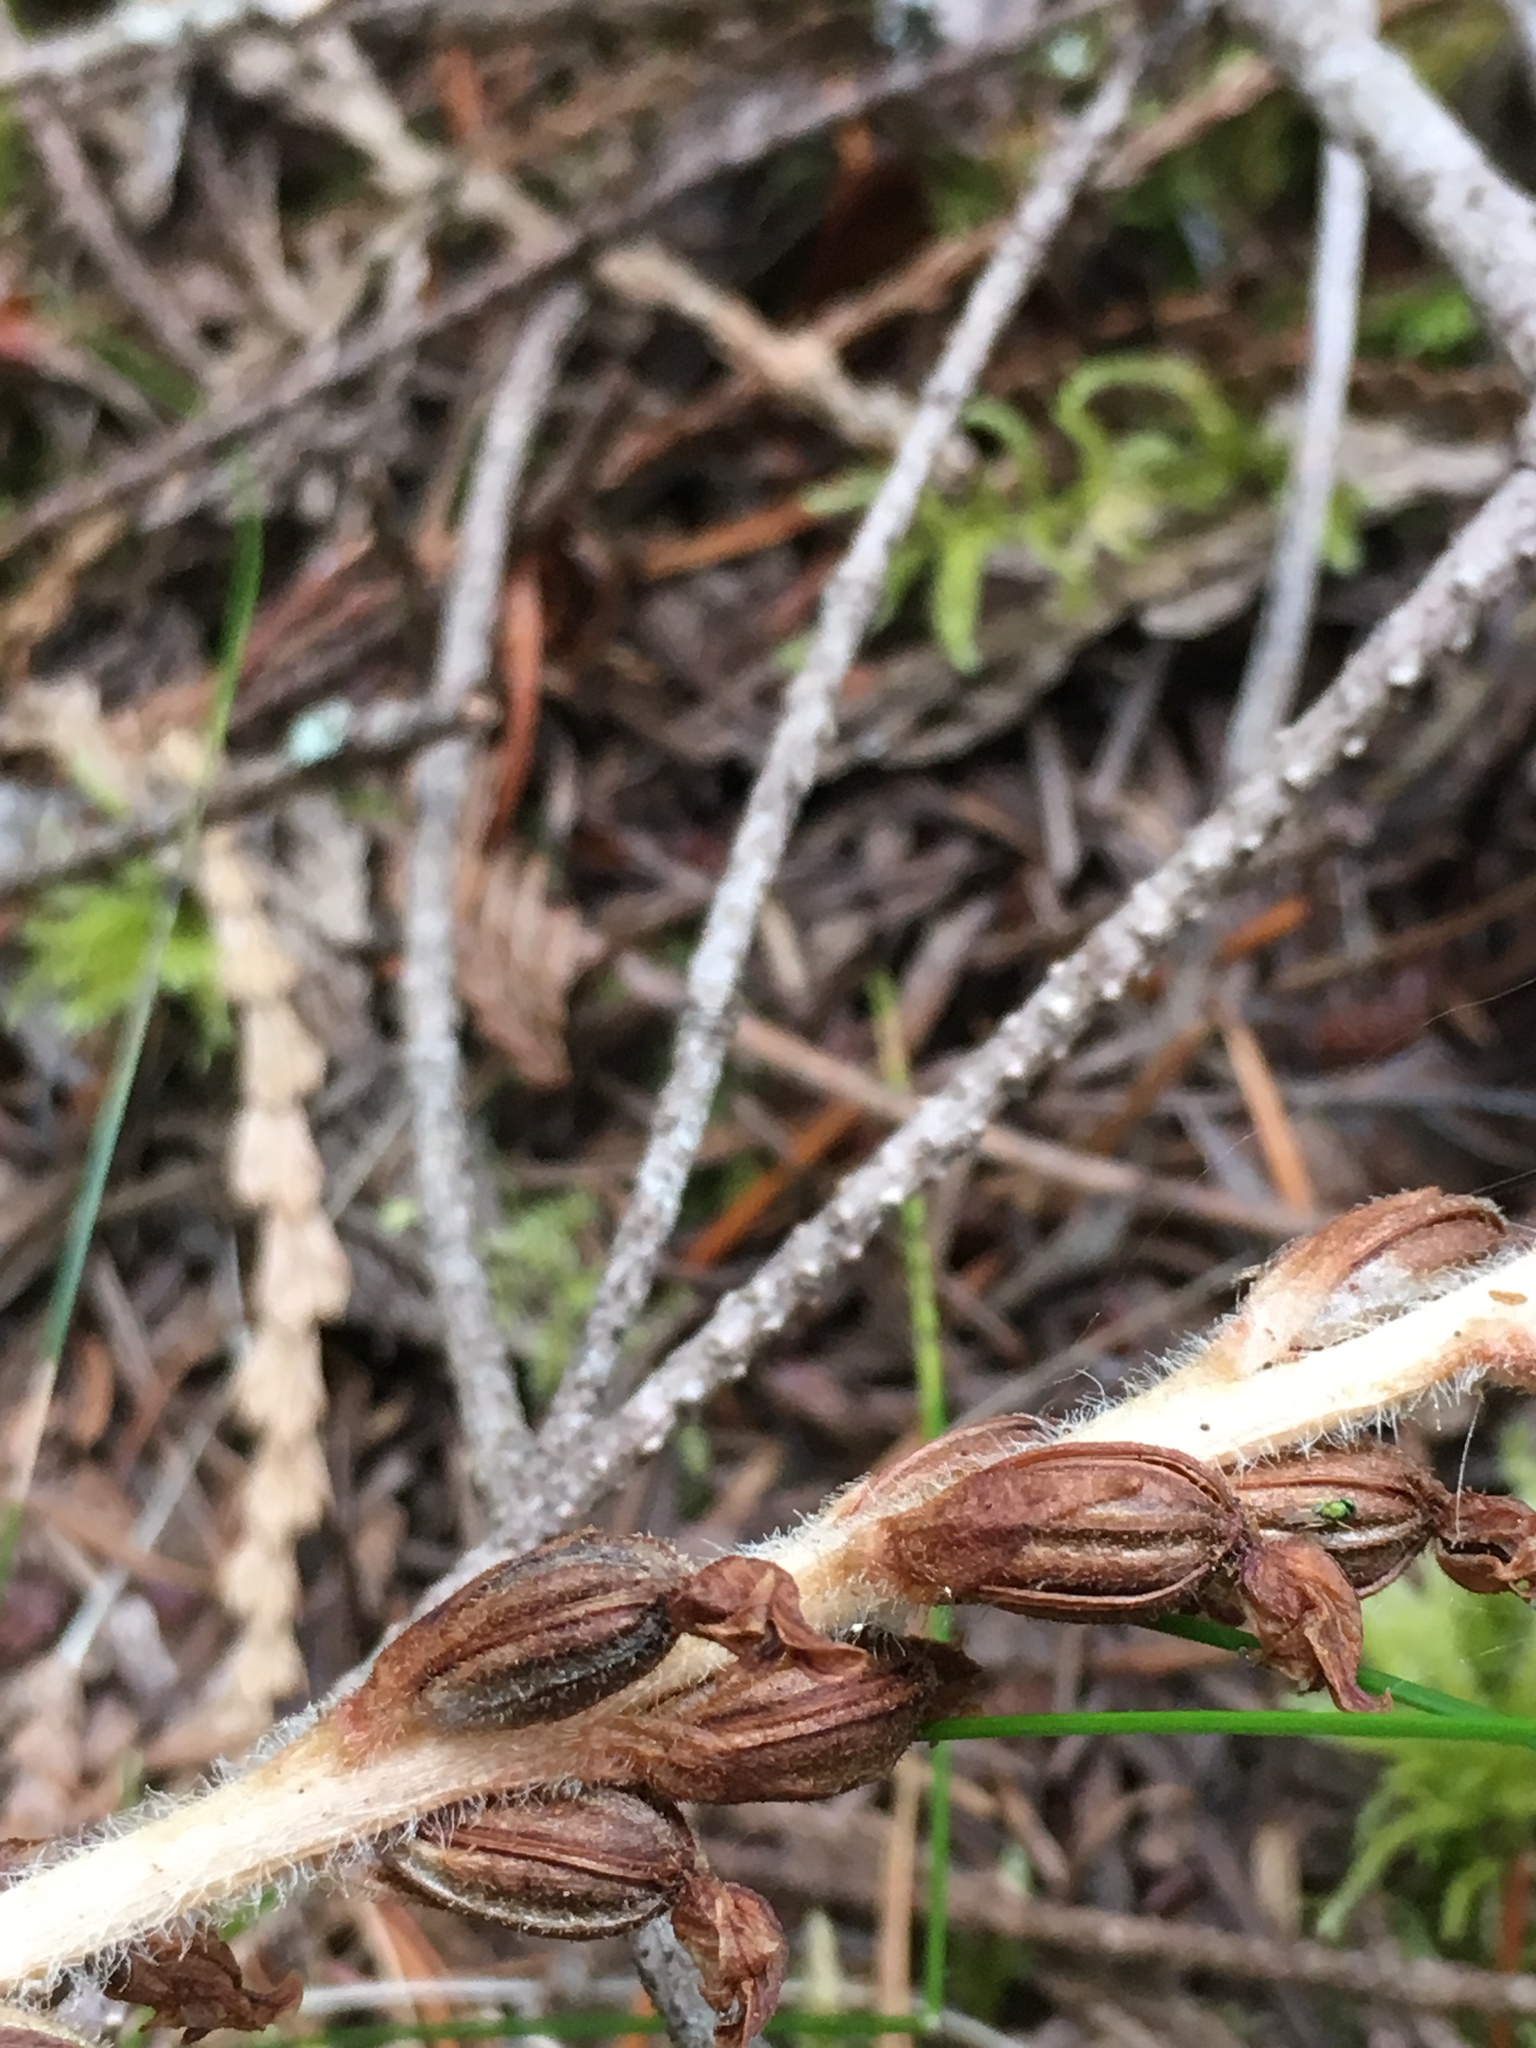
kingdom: Plantae
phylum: Tracheophyta
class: Liliopsida
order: Asparagales
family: Orchidaceae
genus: Goodyera
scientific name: Goodyera oblongifolia
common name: Giant rattlesnake-plantain
